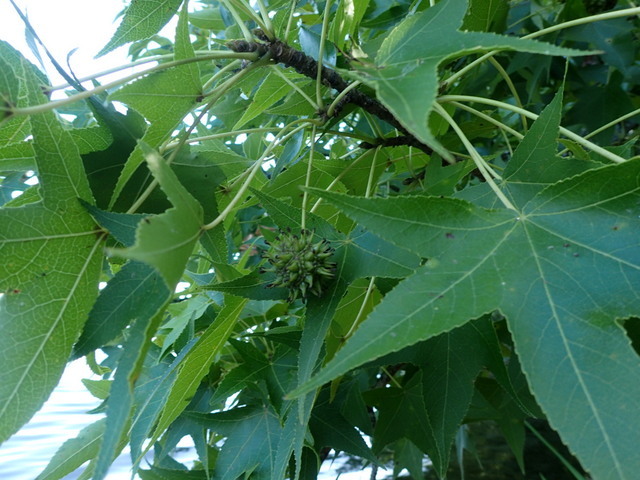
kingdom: Plantae
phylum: Tracheophyta
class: Magnoliopsida
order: Saxifragales
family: Altingiaceae
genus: Liquidambar
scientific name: Liquidambar styraciflua
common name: Sweet gum
